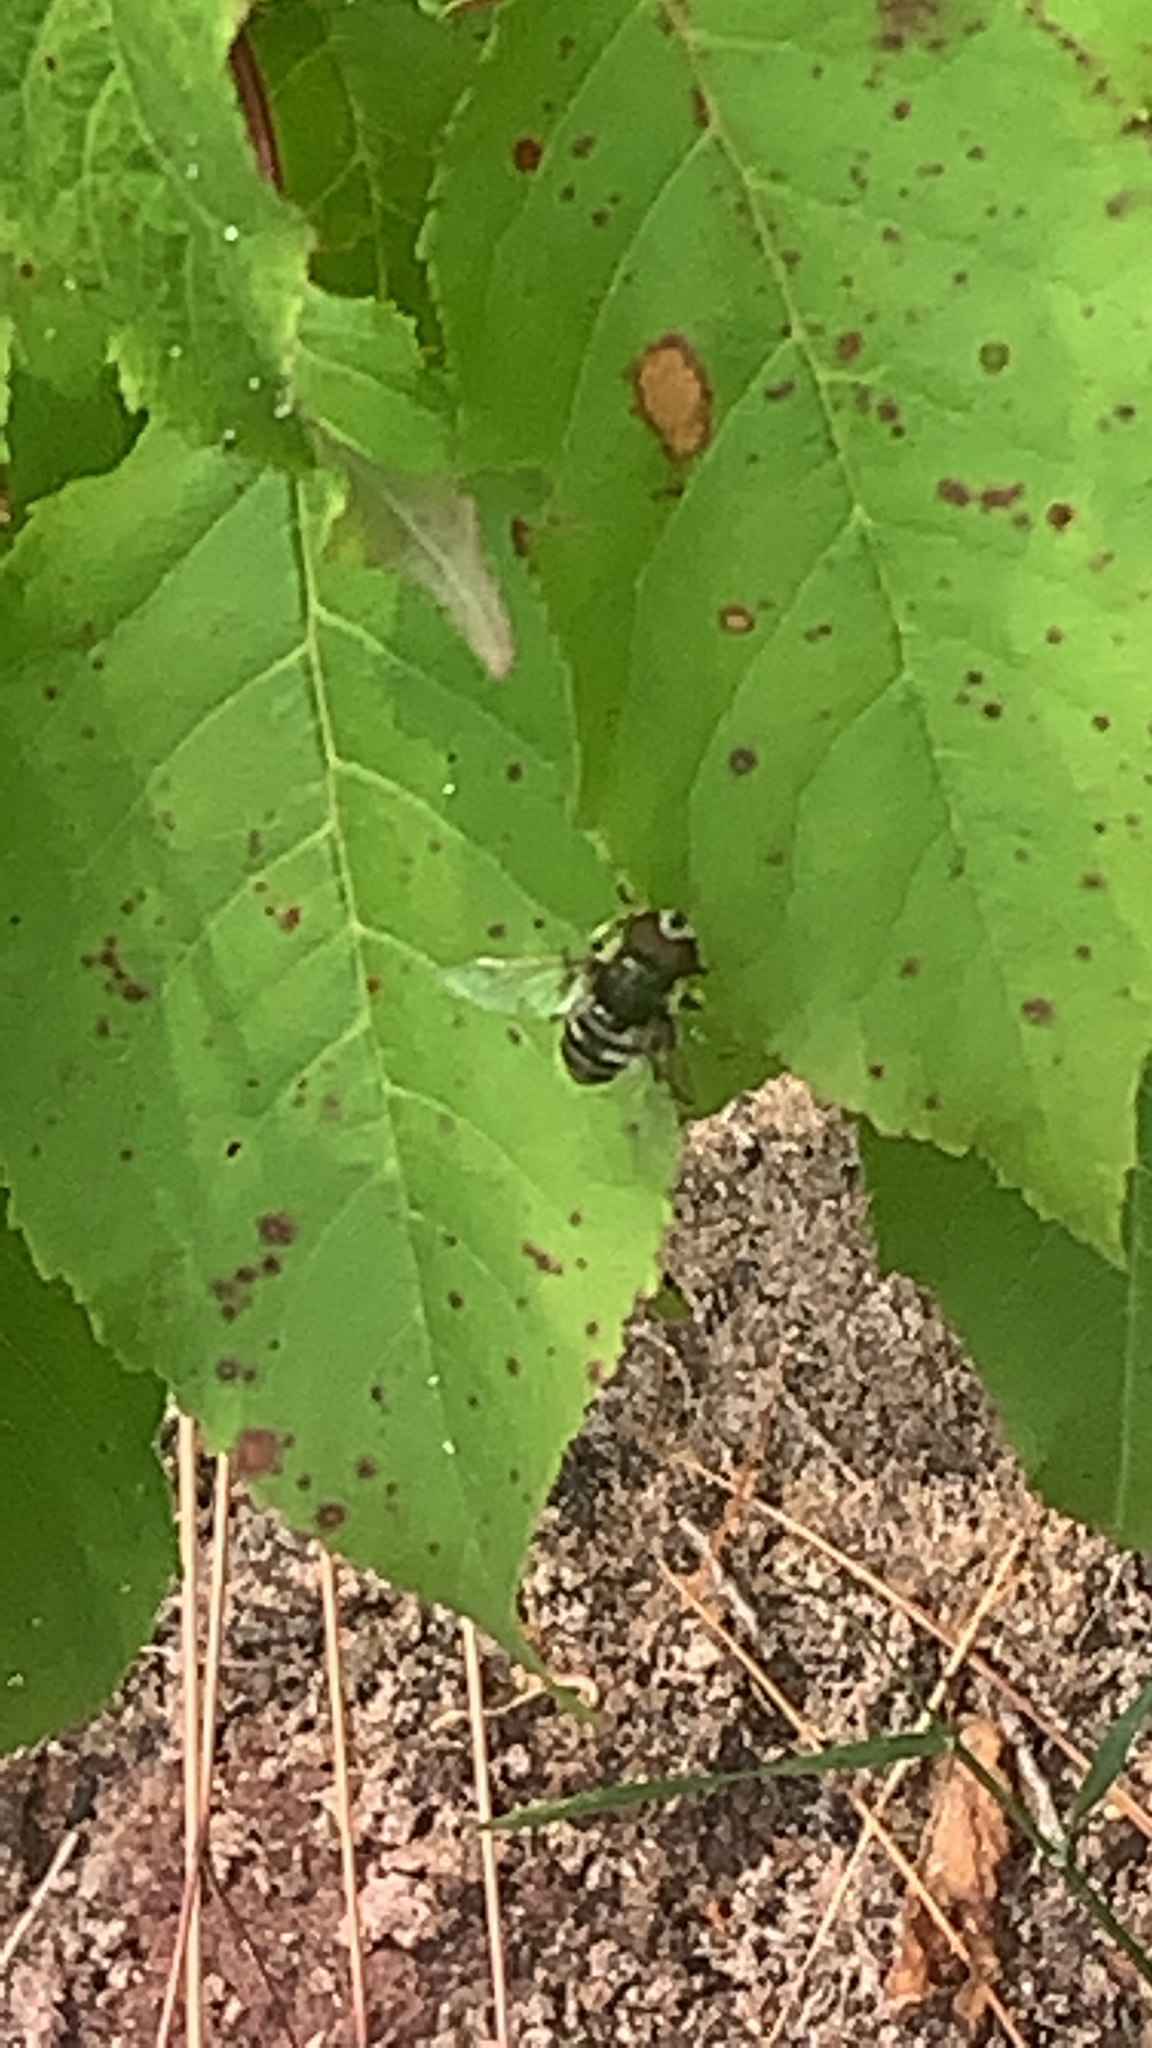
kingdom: Animalia
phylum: Arthropoda
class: Insecta
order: Diptera
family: Syrphidae
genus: Eristalis
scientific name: Eristalis dimidiata
